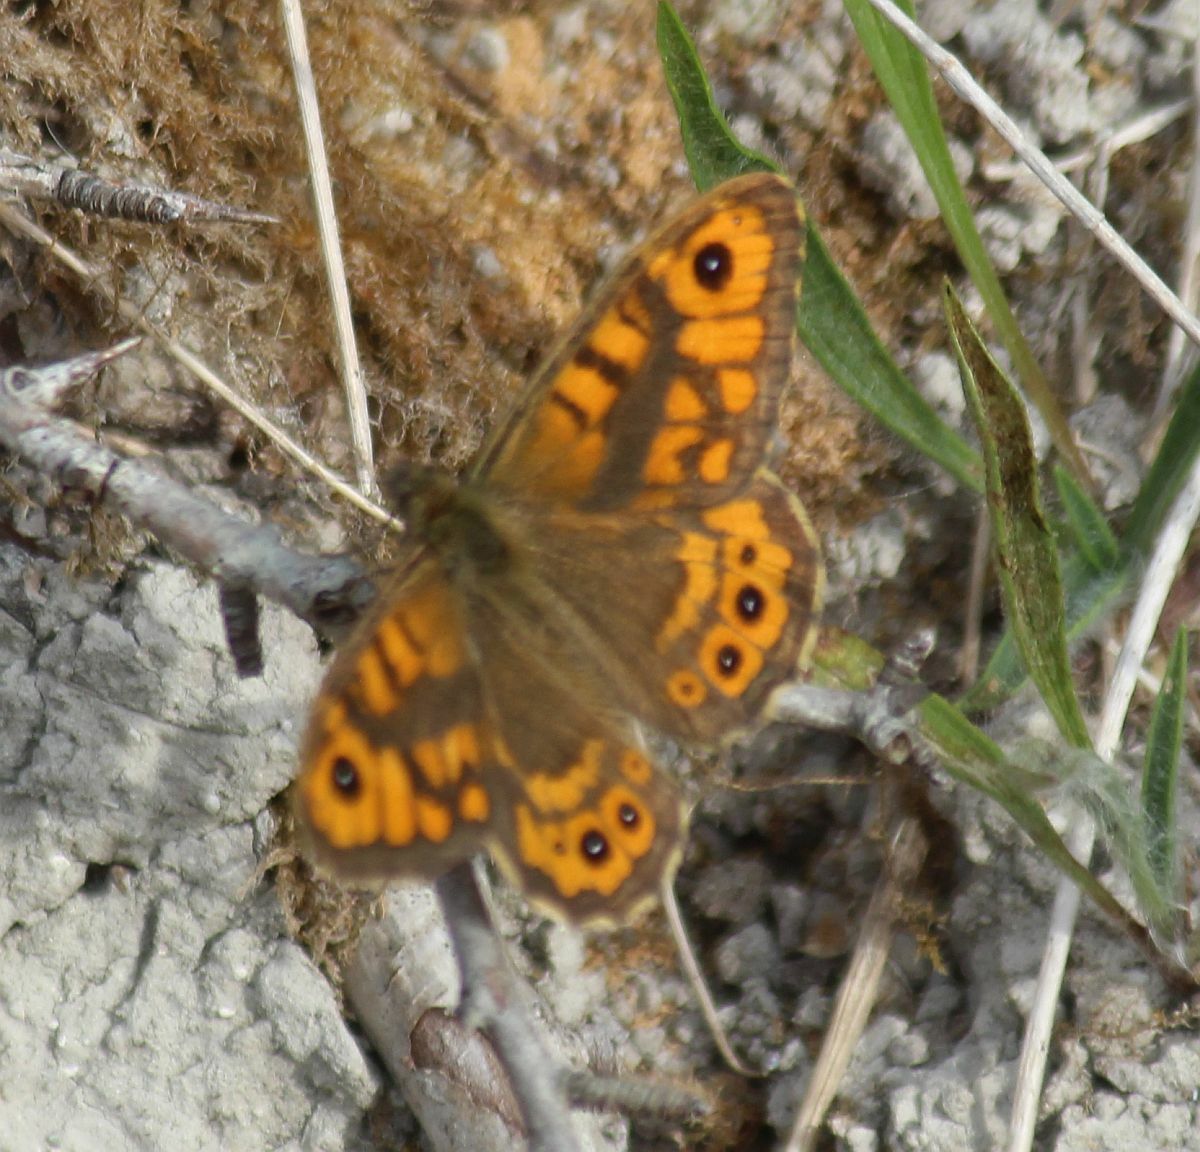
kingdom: Animalia
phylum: Arthropoda
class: Insecta
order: Lepidoptera
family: Nymphalidae
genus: Pararge
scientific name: Pararge Lasiommata megera
